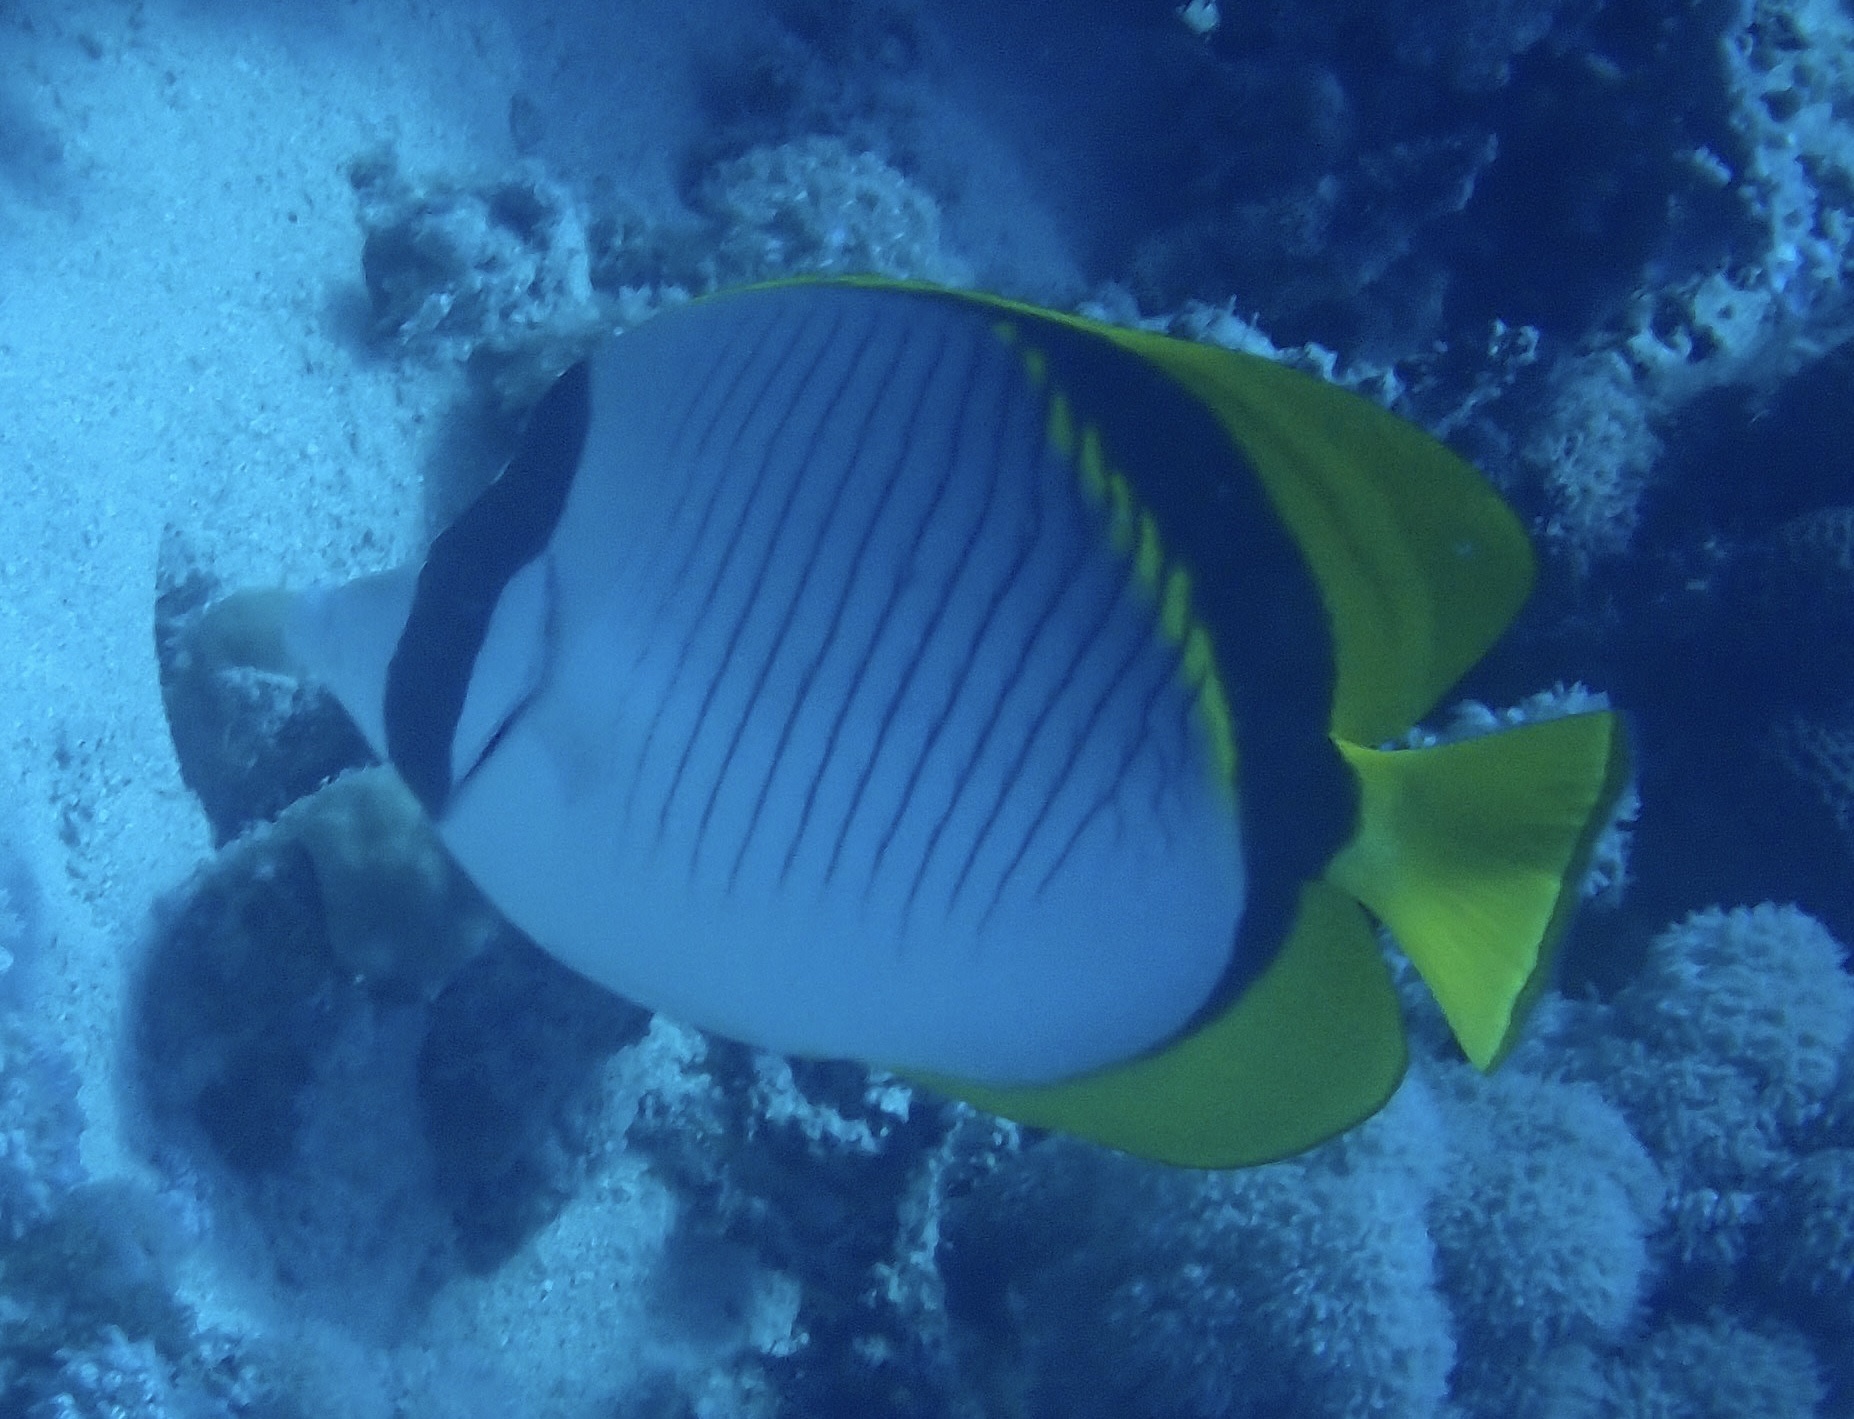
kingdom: Animalia
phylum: Chordata
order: Perciformes
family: Chaetodontidae
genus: Chaetodon
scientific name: Chaetodon lineolatus
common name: Lined butterflyfish
